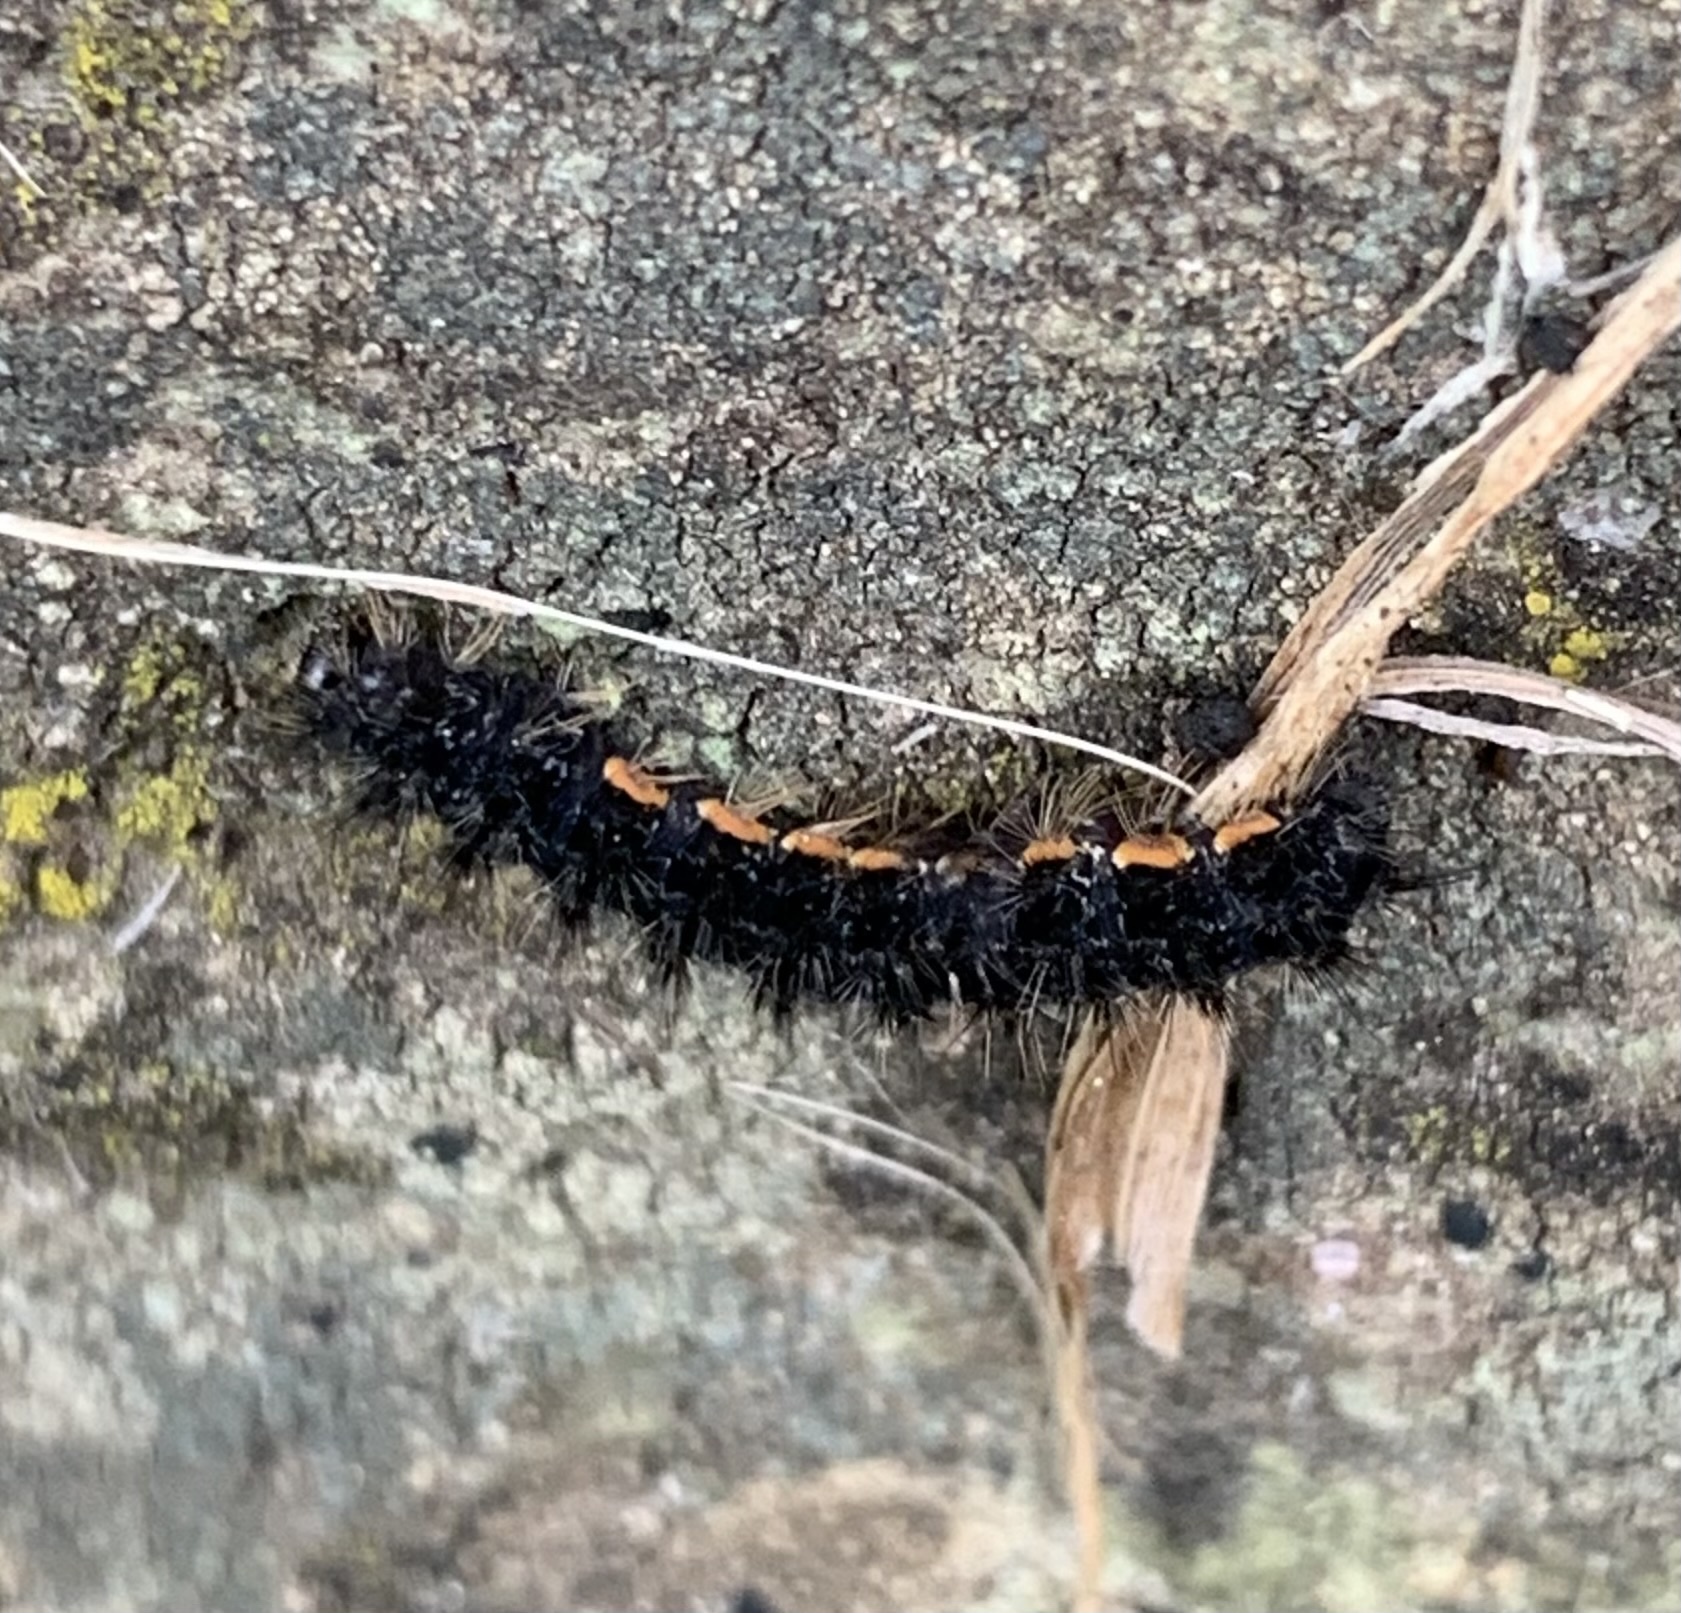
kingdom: Animalia
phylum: Arthropoda
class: Insecta
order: Lepidoptera
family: Erebidae
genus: Nyea
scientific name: Nyea lurideola
